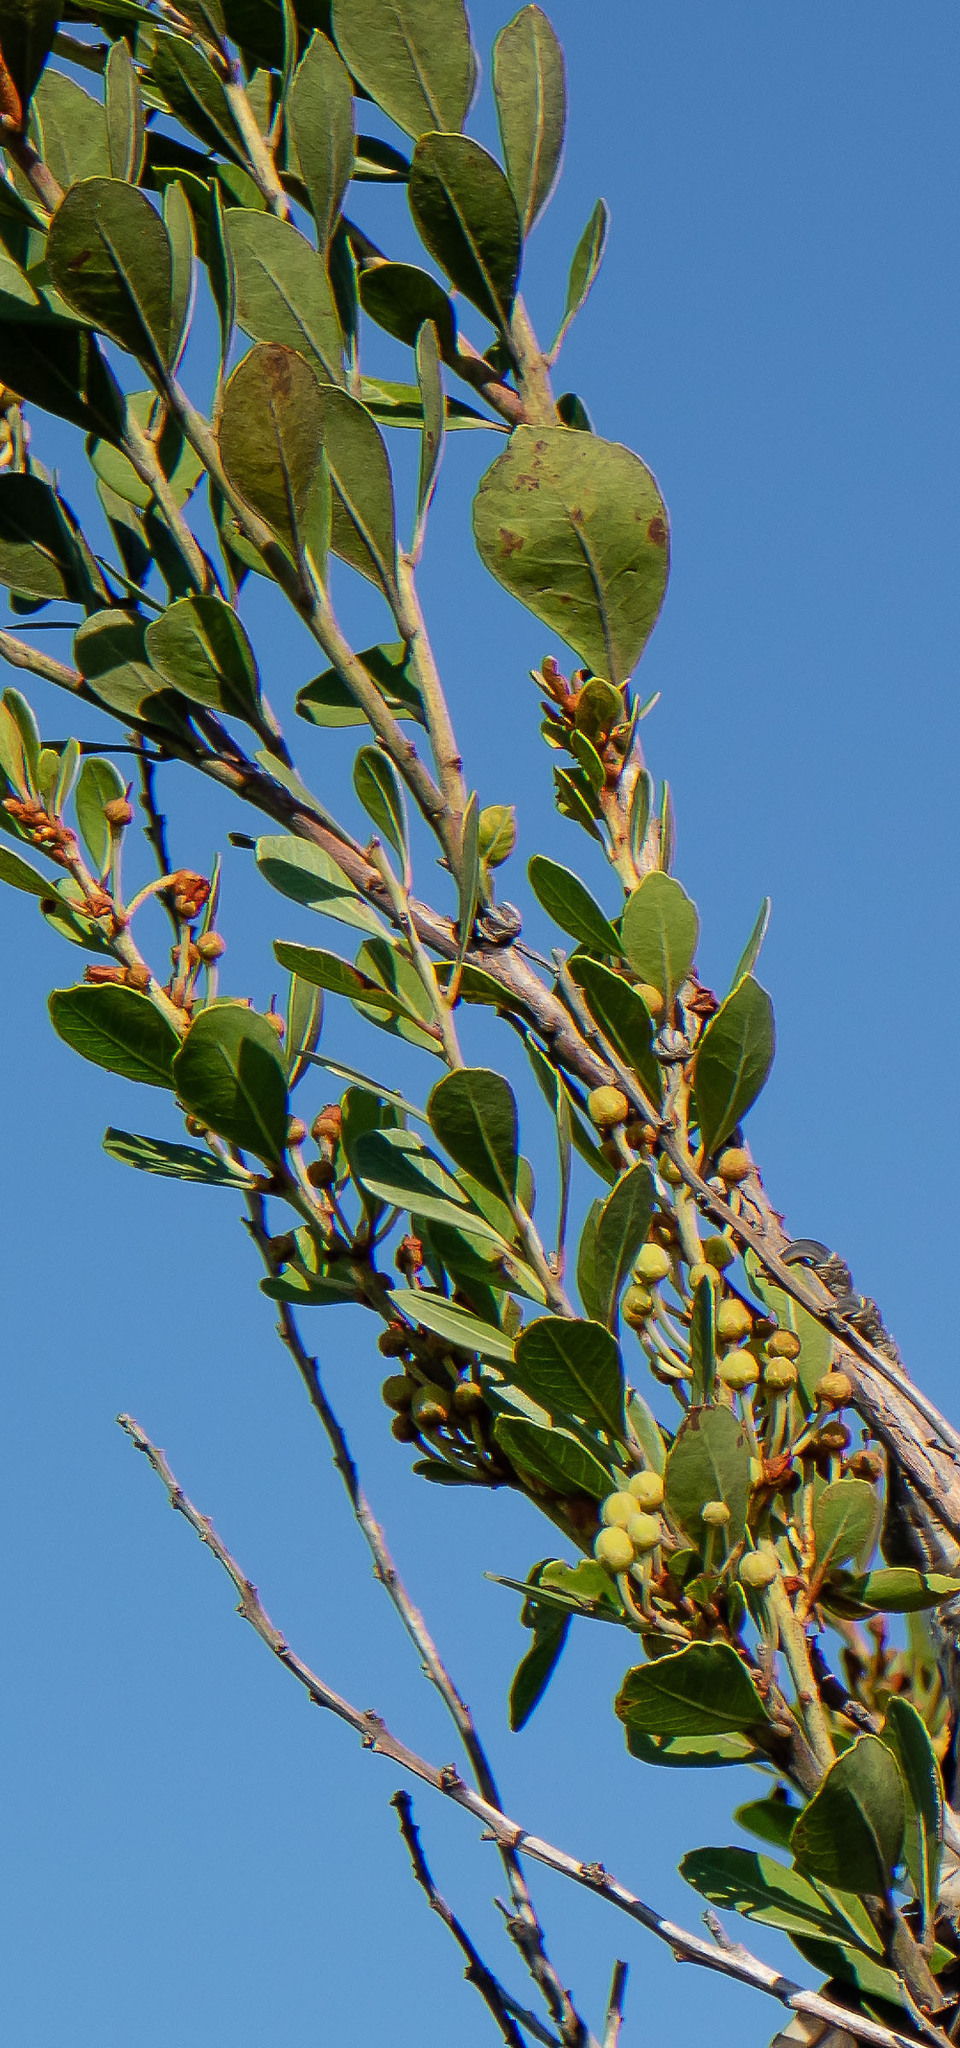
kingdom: Plantae
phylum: Tracheophyta
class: Magnoliopsida
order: Ericales
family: Ericaceae
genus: Lyonia
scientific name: Lyonia fruticosa
